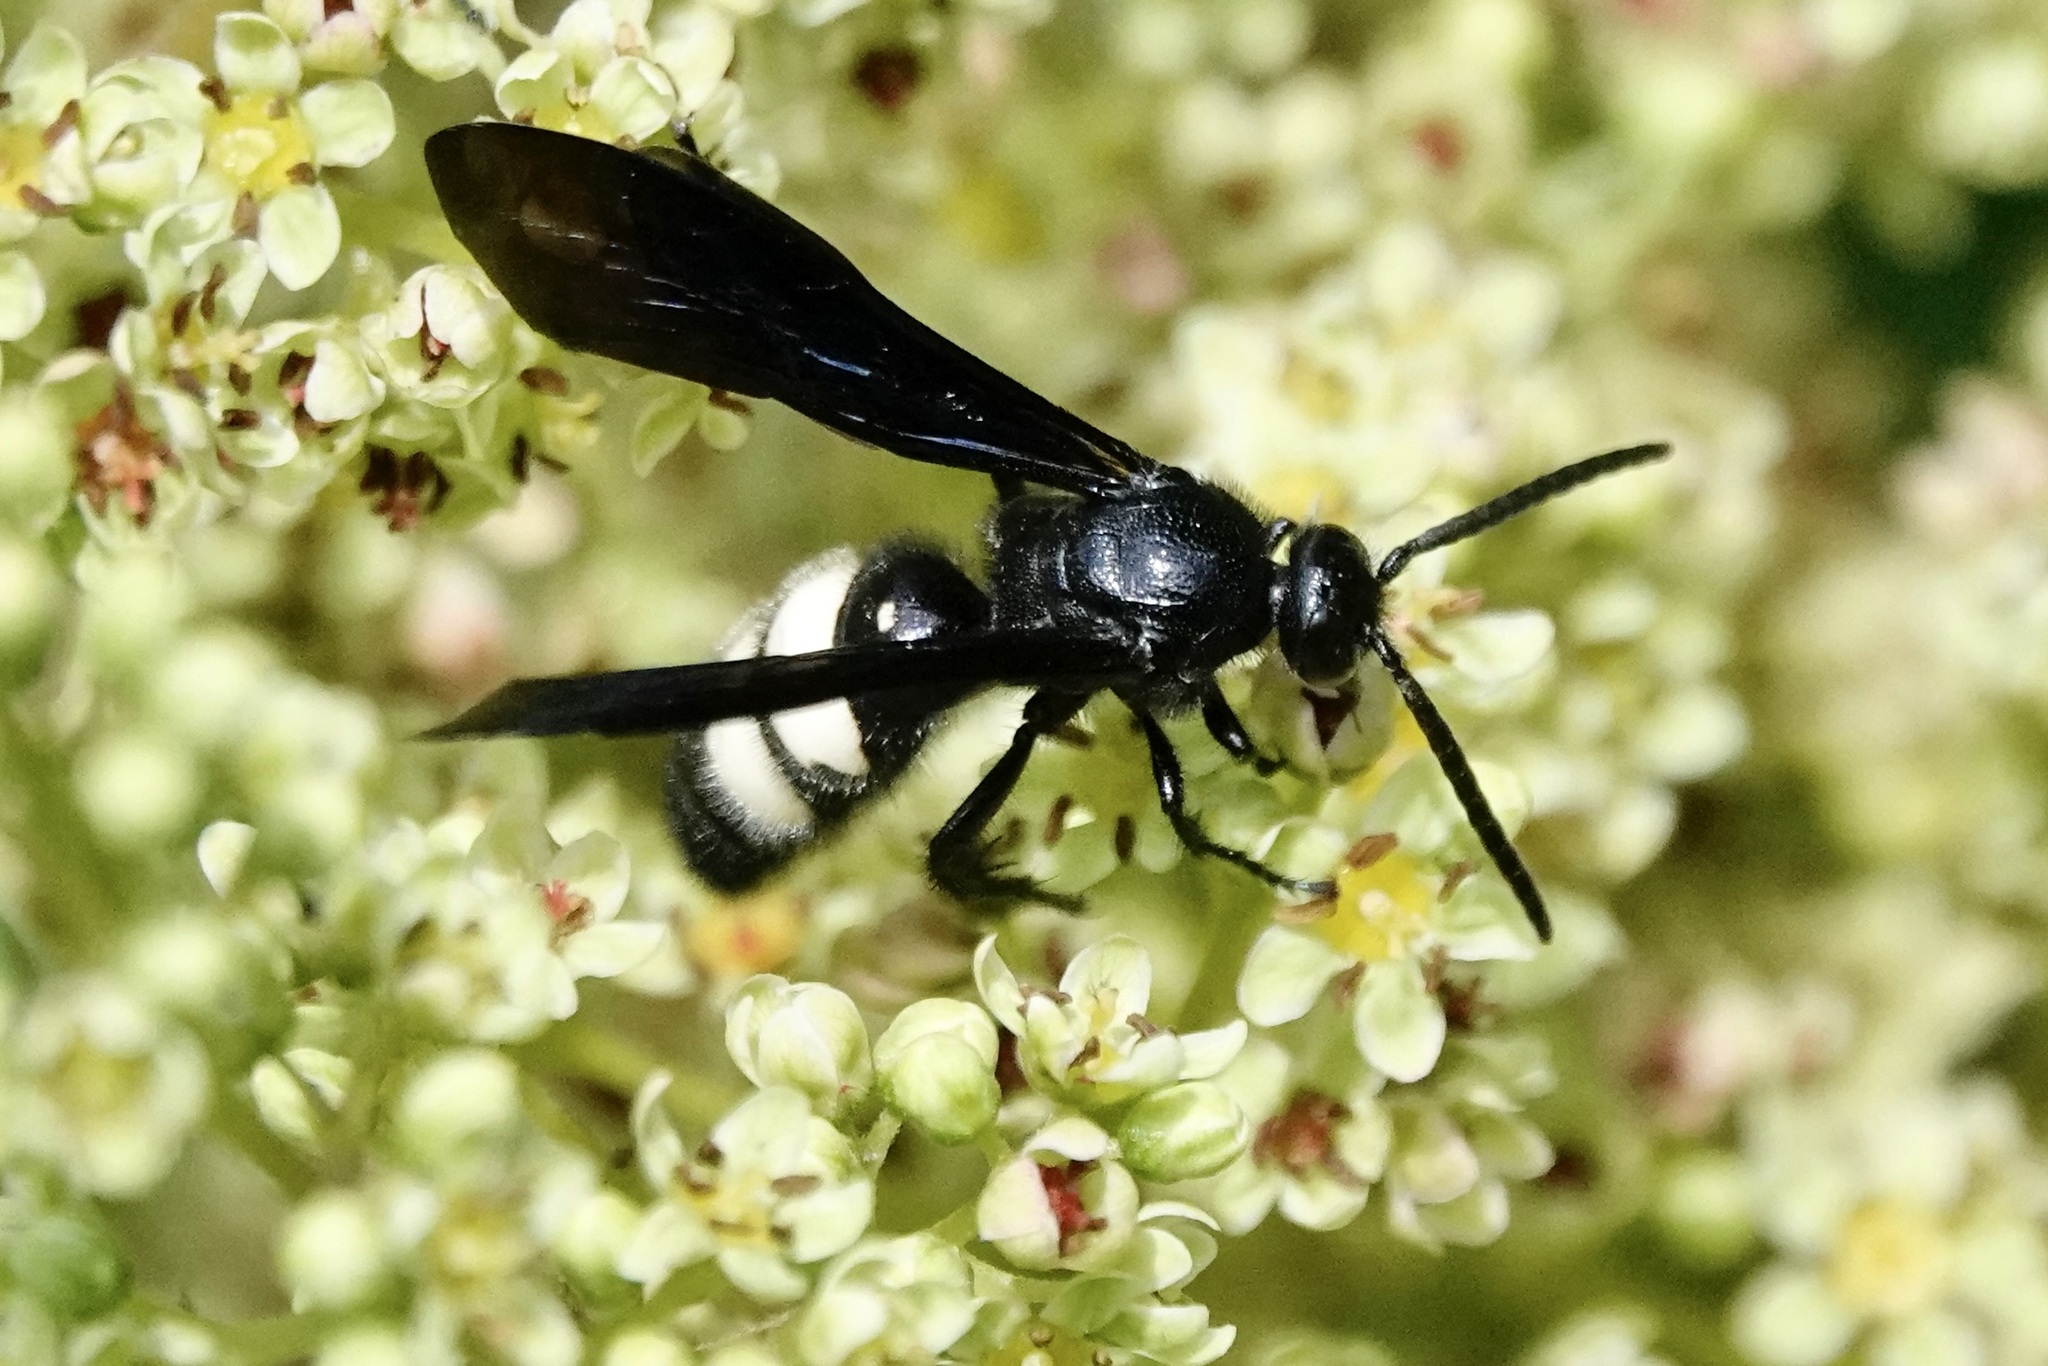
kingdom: Animalia
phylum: Arthropoda
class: Insecta
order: Hymenoptera
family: Scoliidae
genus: Scolia
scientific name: Scolia bicincta
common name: Double-banded scoliid wasp
